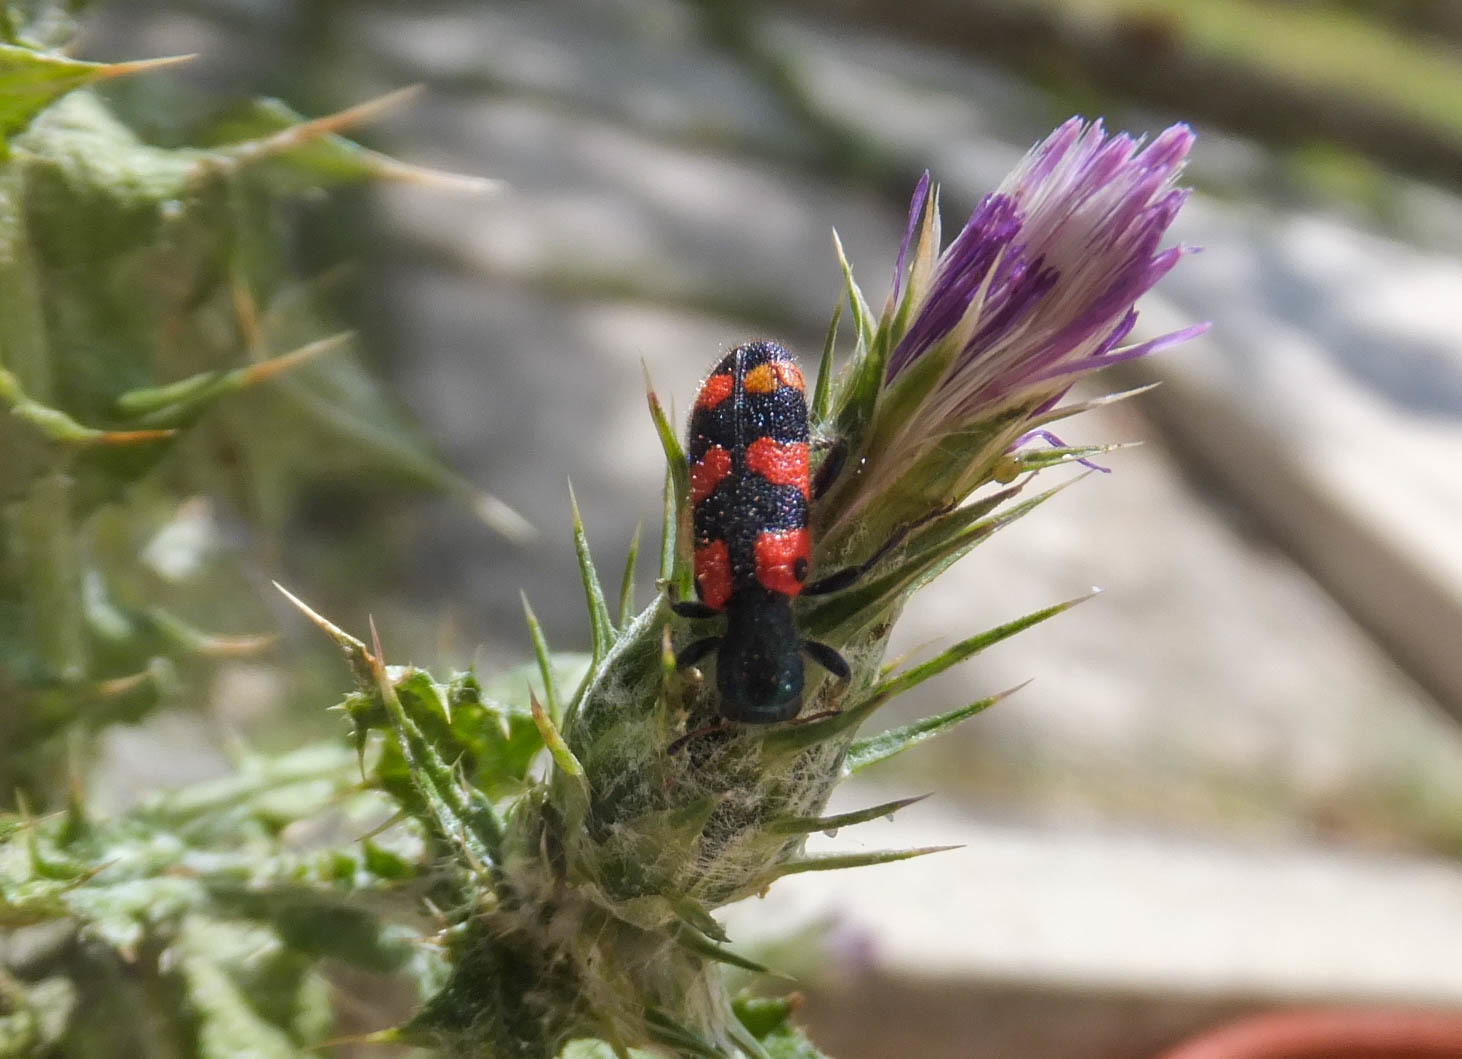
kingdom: Animalia
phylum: Arthropoda
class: Insecta
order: Coleoptera
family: Cleridae
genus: Trichodes
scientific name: Trichodes leucopsideus
